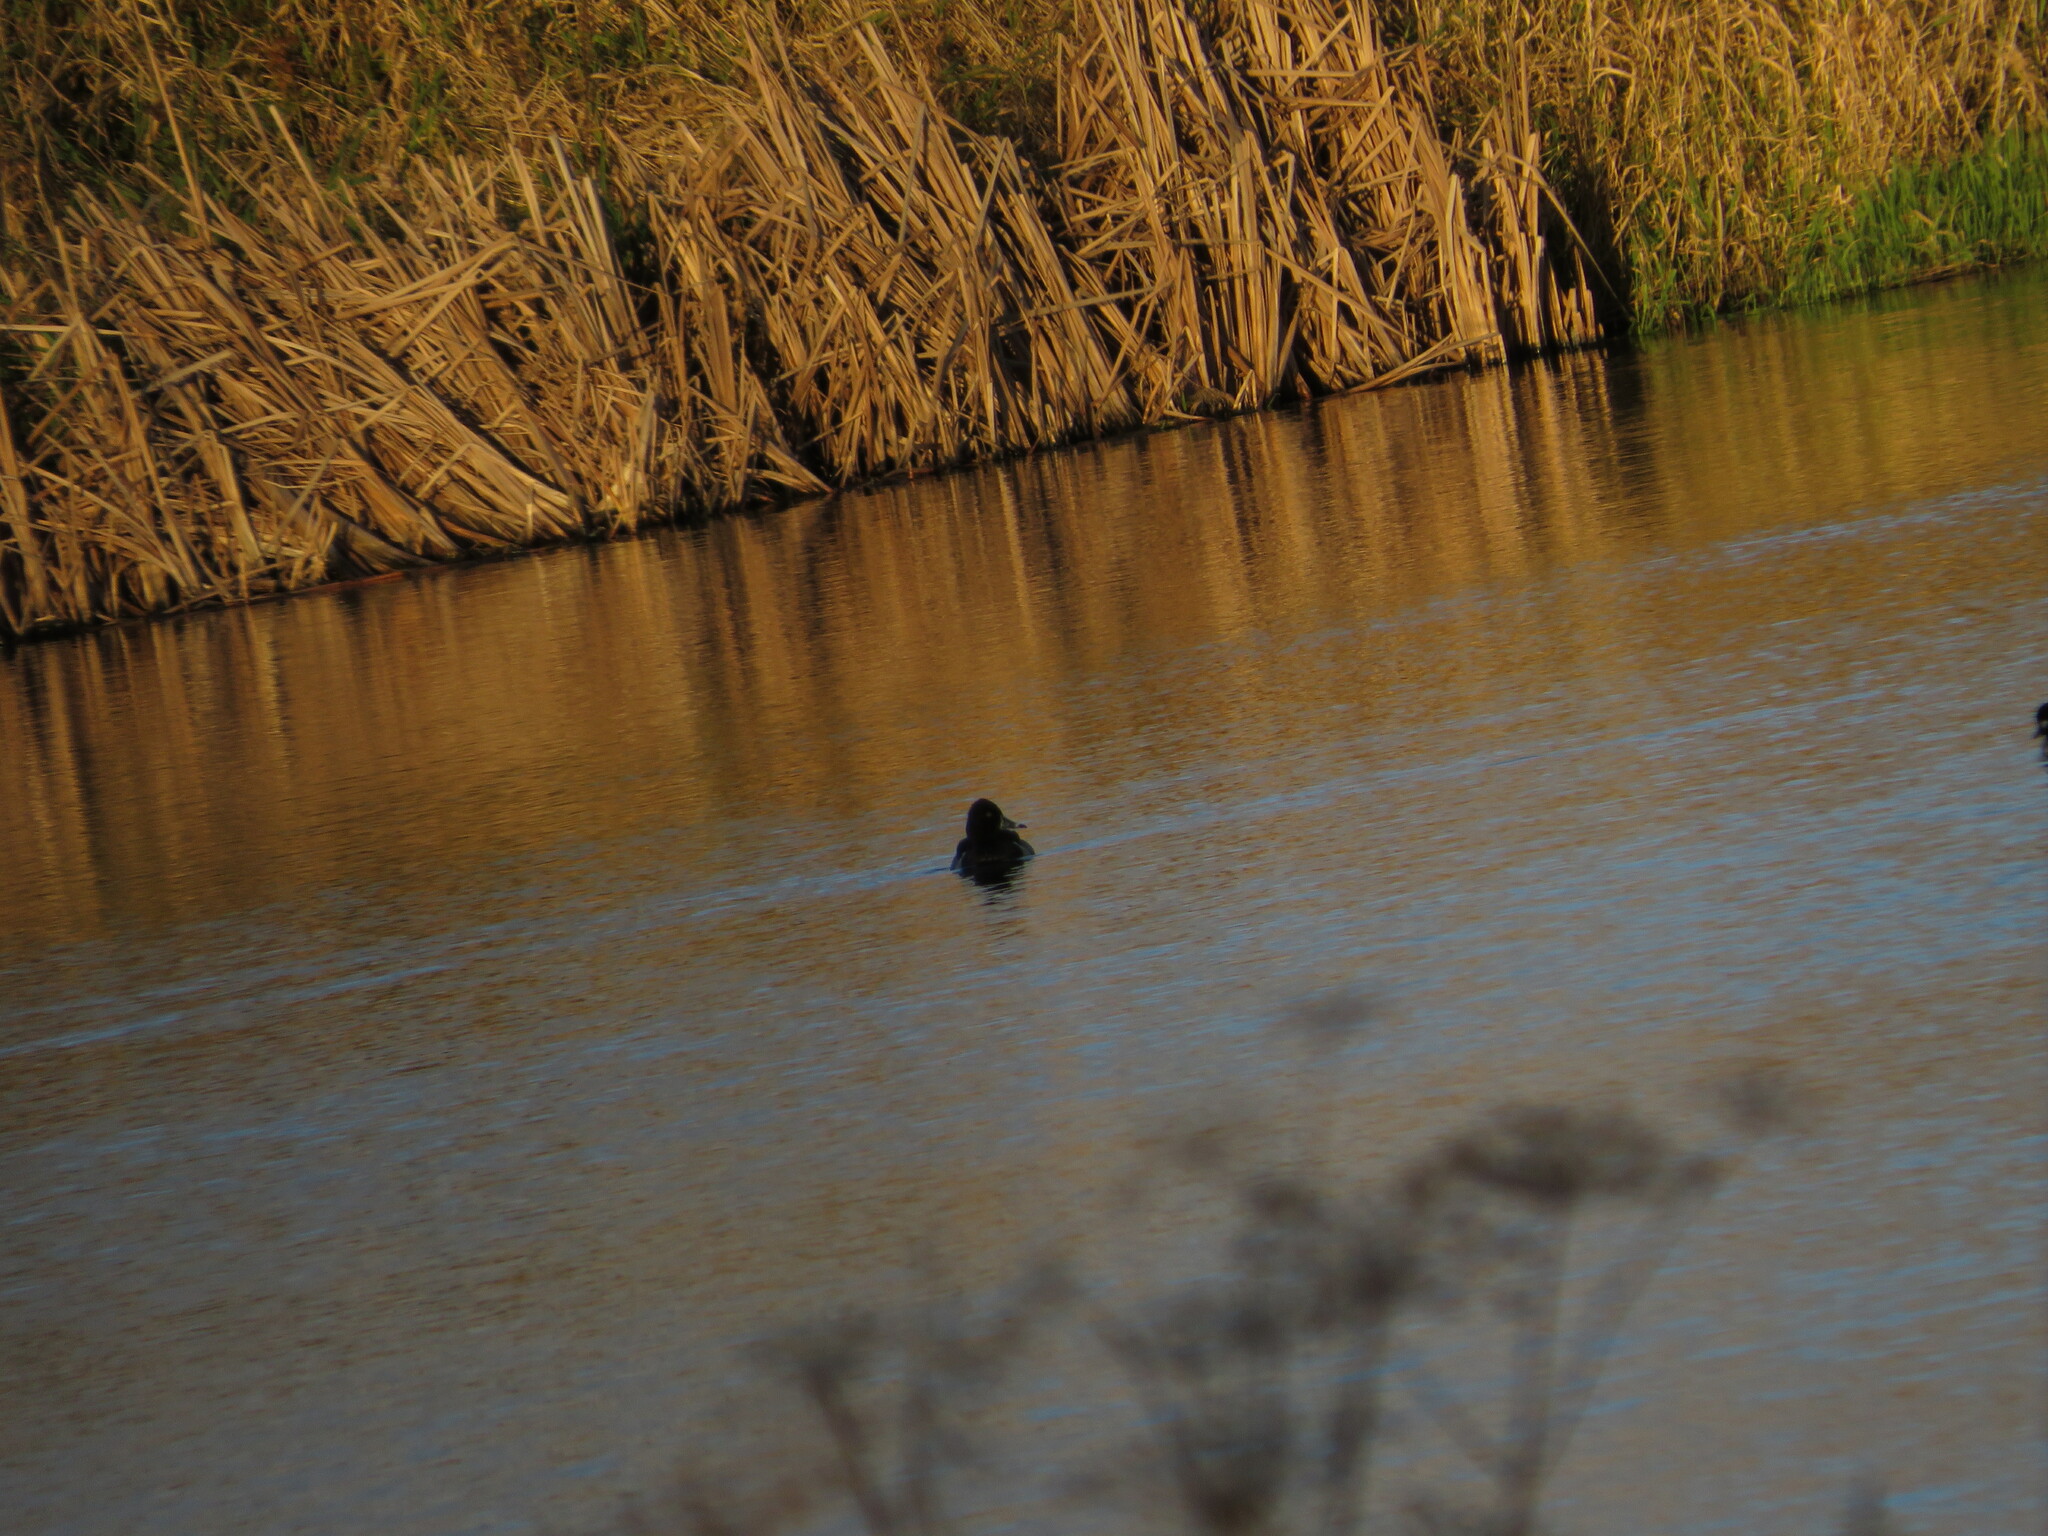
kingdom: Animalia
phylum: Chordata
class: Aves
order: Anseriformes
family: Anatidae
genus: Aythya
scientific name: Aythya collaris
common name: Ring-necked duck
